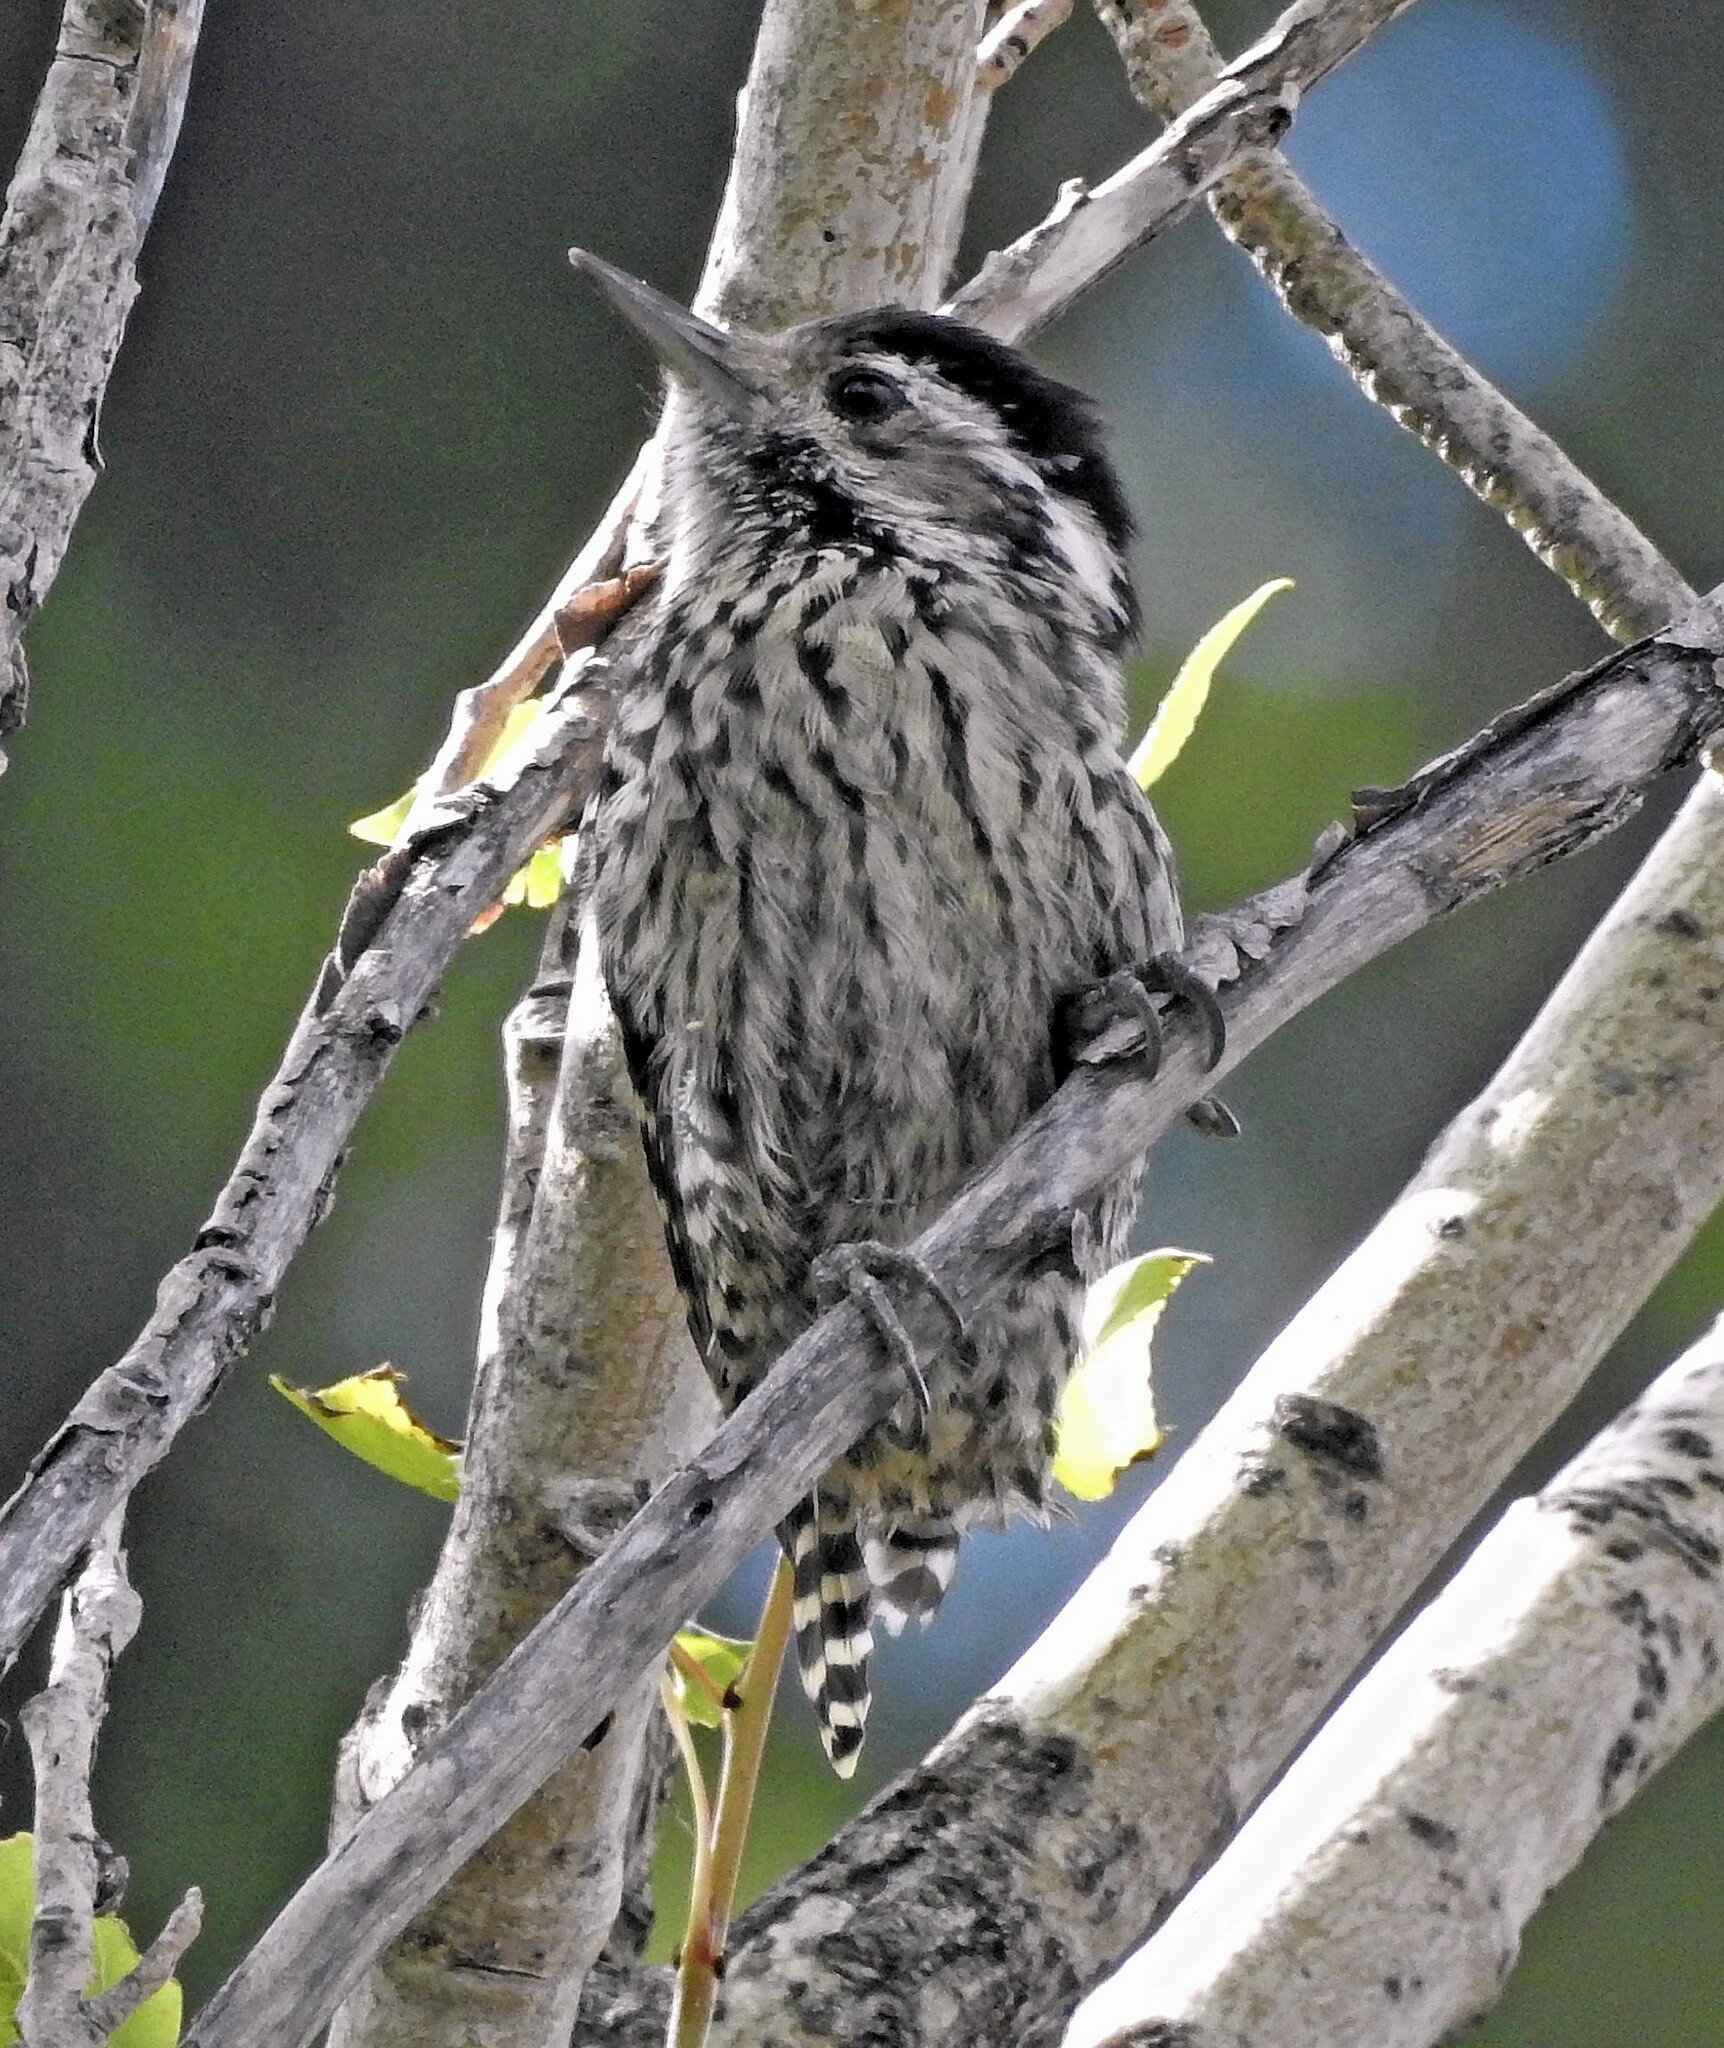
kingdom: Animalia
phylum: Chordata
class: Aves
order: Piciformes
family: Picidae
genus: Veniliornis
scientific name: Veniliornis lignarius
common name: Striped woodpecker
